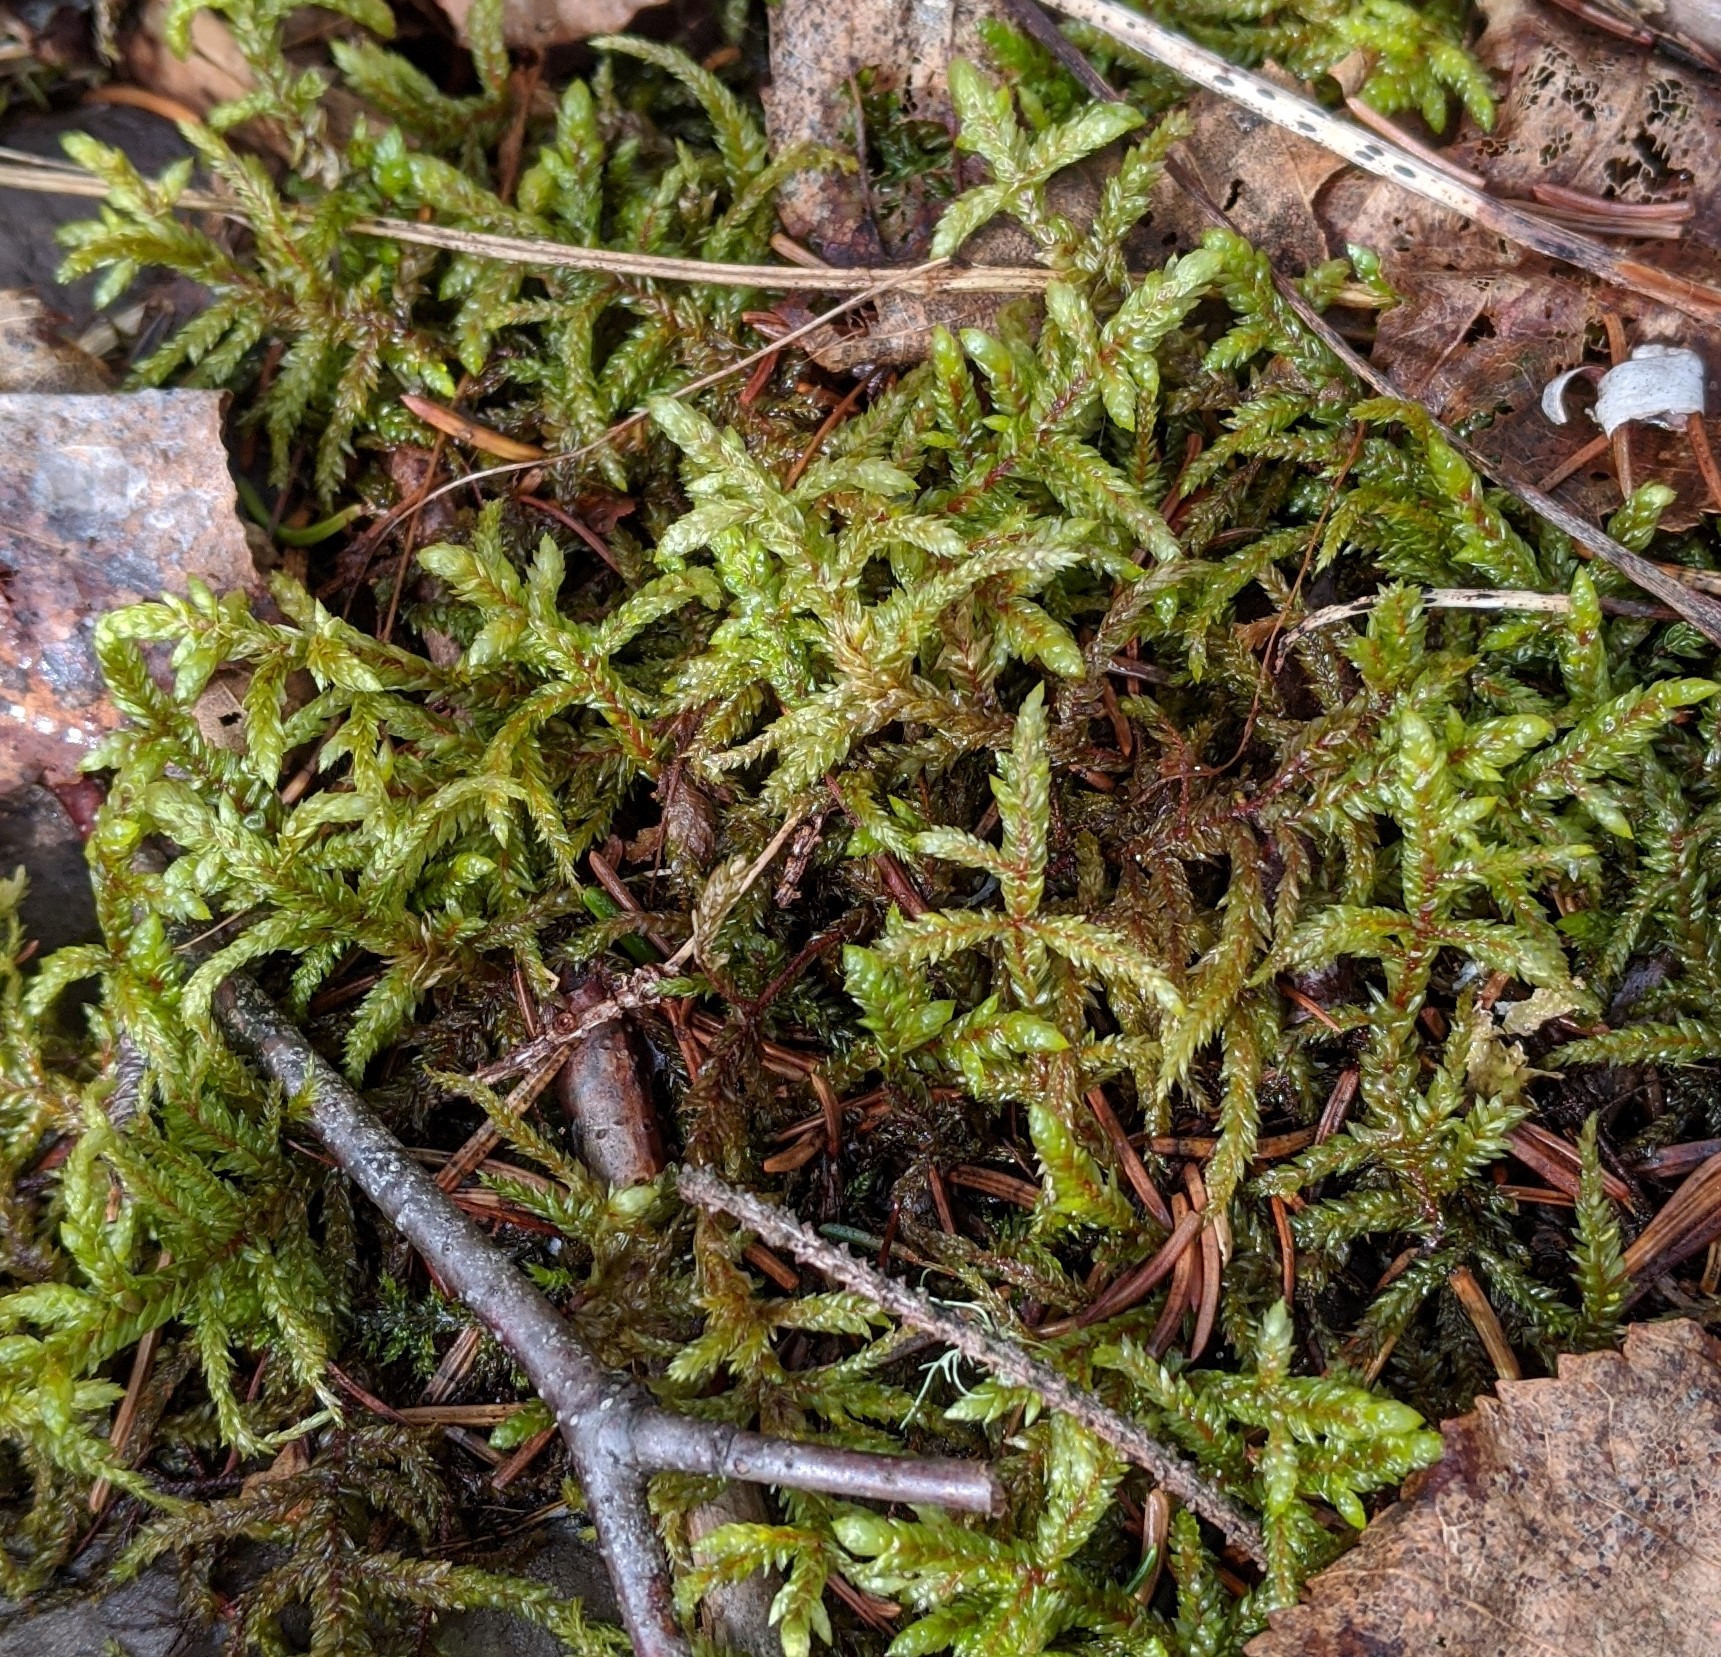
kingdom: Plantae
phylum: Bryophyta
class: Bryopsida
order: Hypnales
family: Hylocomiaceae
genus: Pleurozium
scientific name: Pleurozium schreberi
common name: Red-stemmed feather moss
